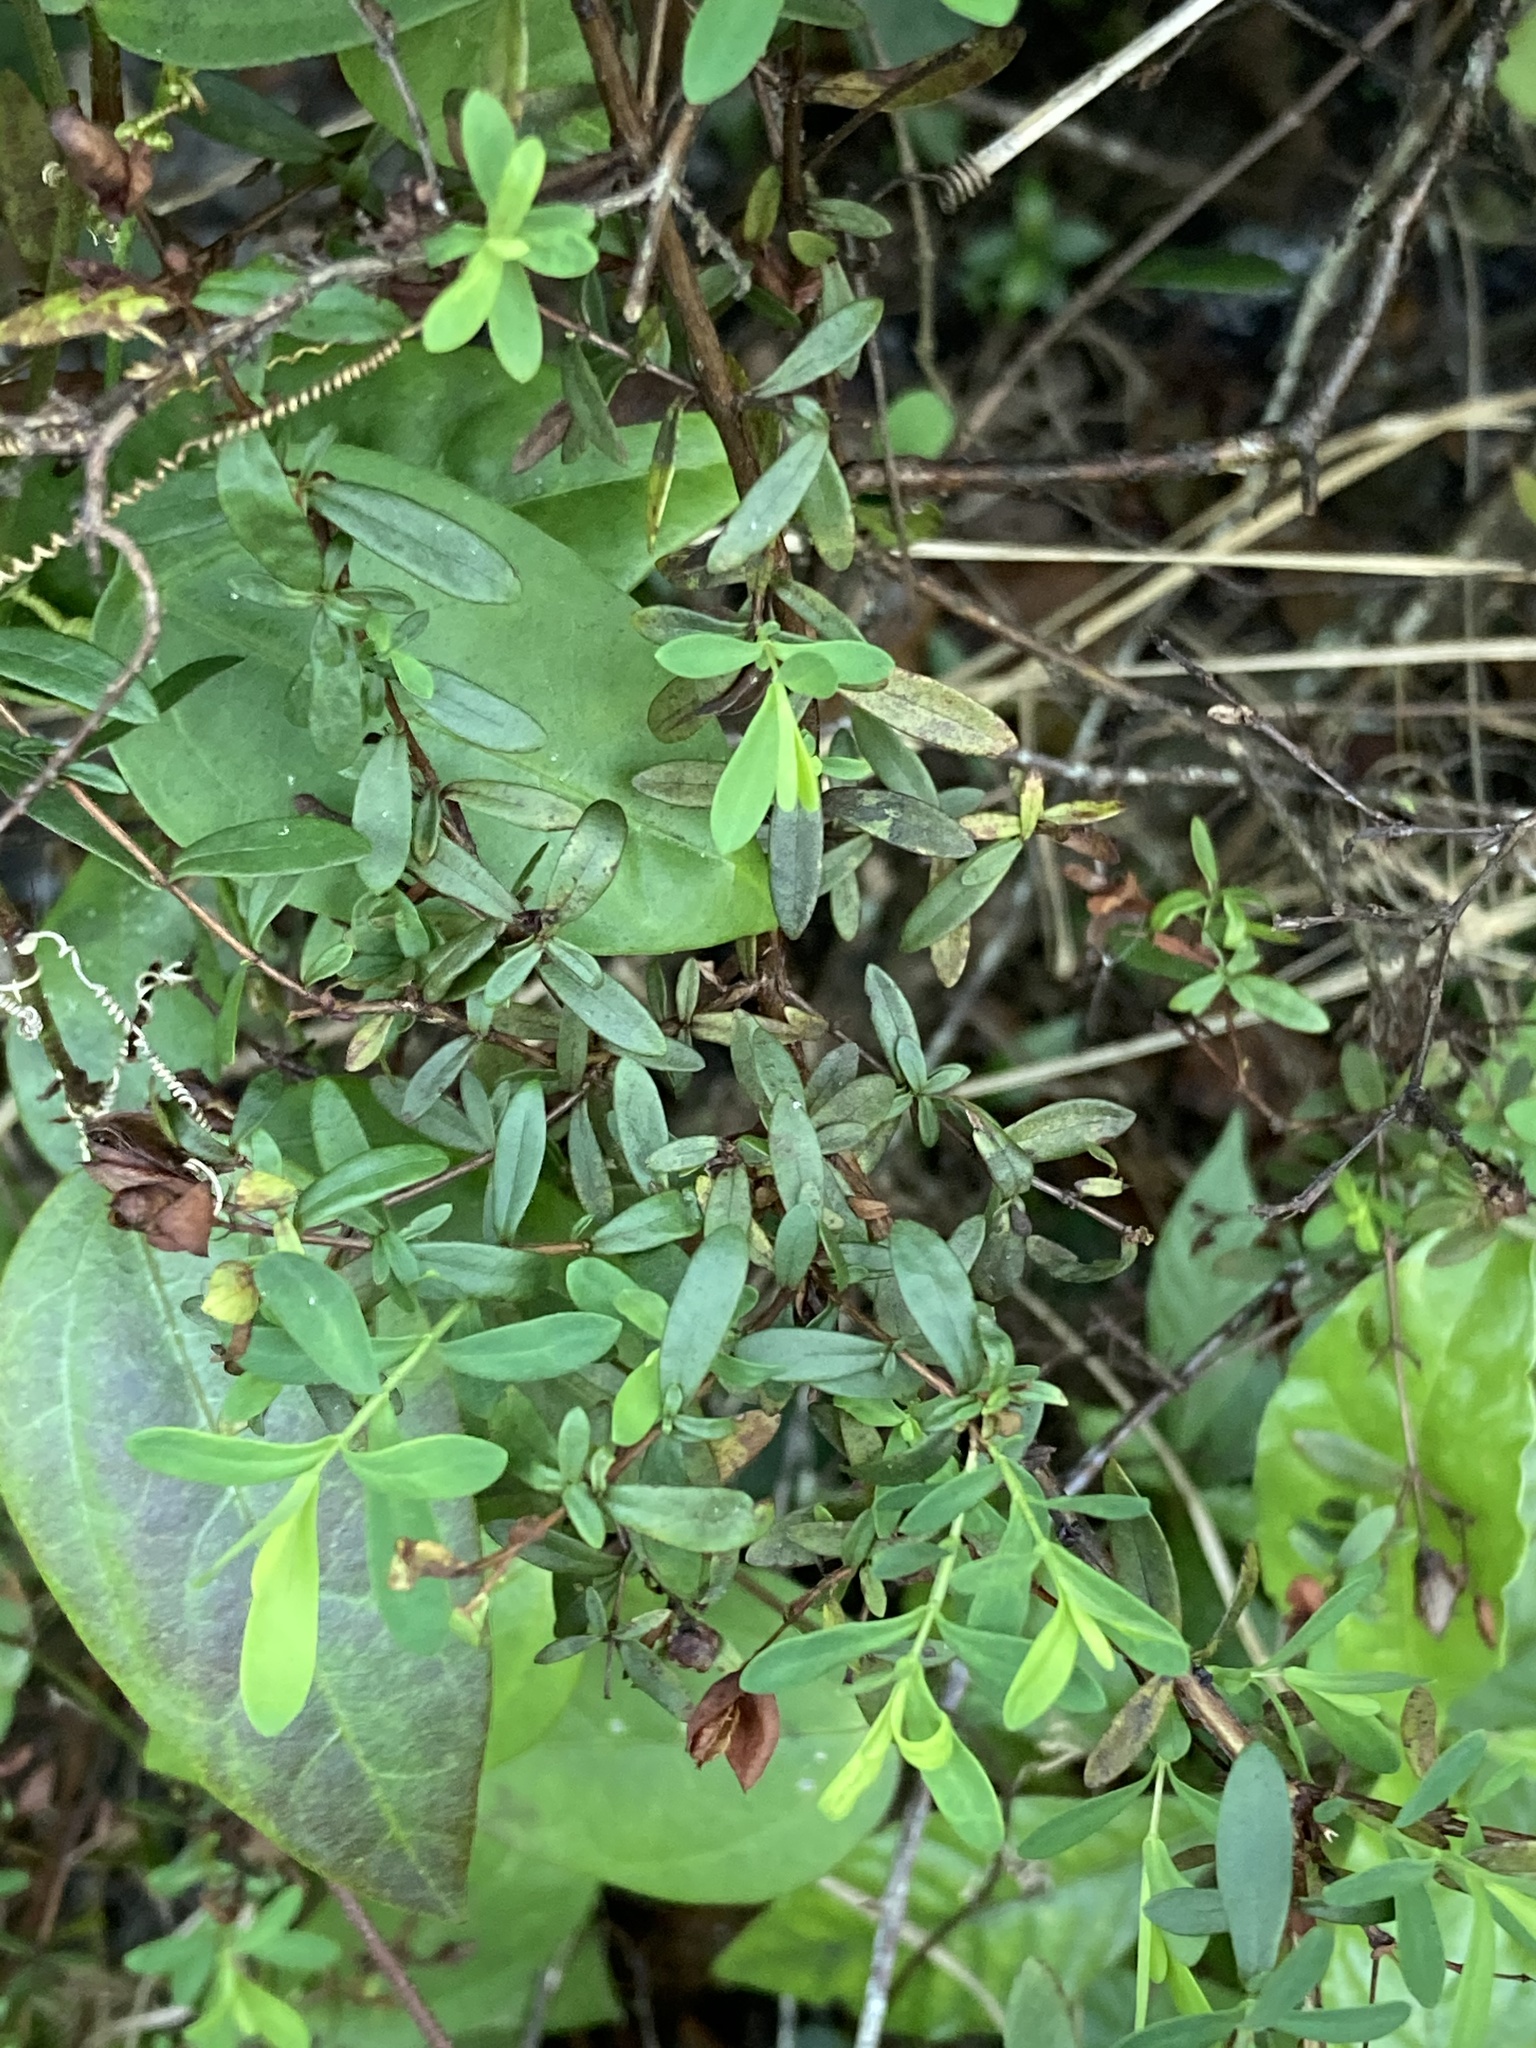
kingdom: Plantae
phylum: Tracheophyta
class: Magnoliopsida
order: Malpighiales
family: Hypericaceae
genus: Hypericum
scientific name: Hypericum hypericoides
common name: St. andrew's cross
